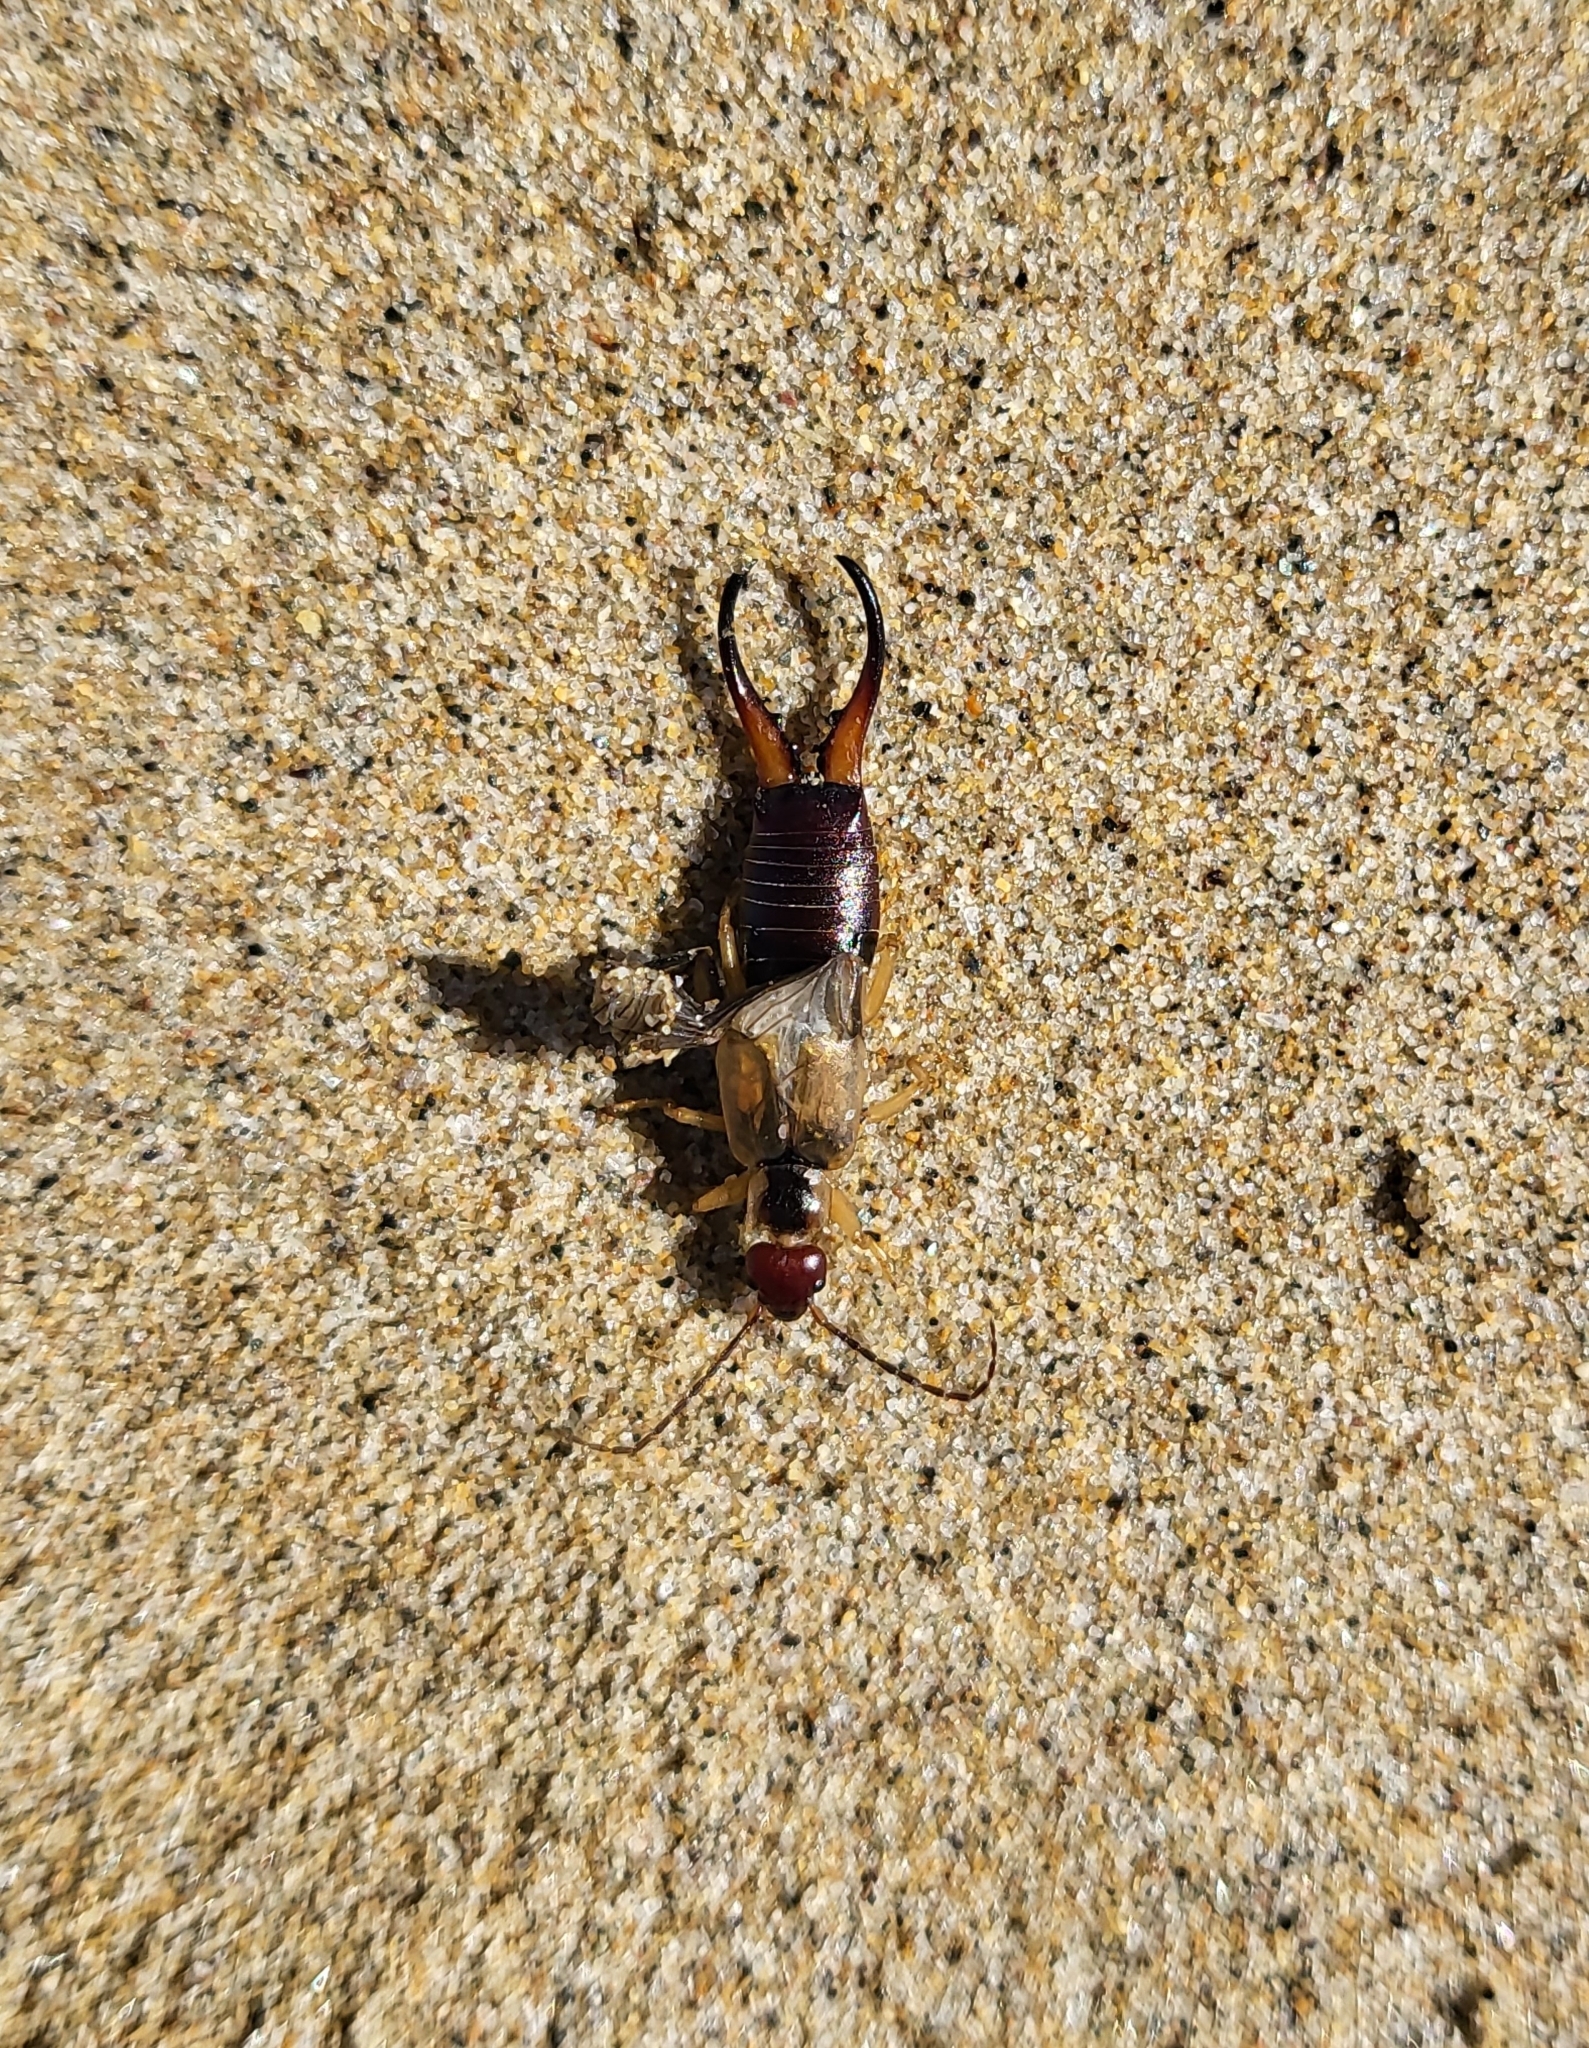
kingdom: Animalia
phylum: Arthropoda
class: Insecta
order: Dermaptera
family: Forficulidae
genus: Forficula
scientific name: Forficula
